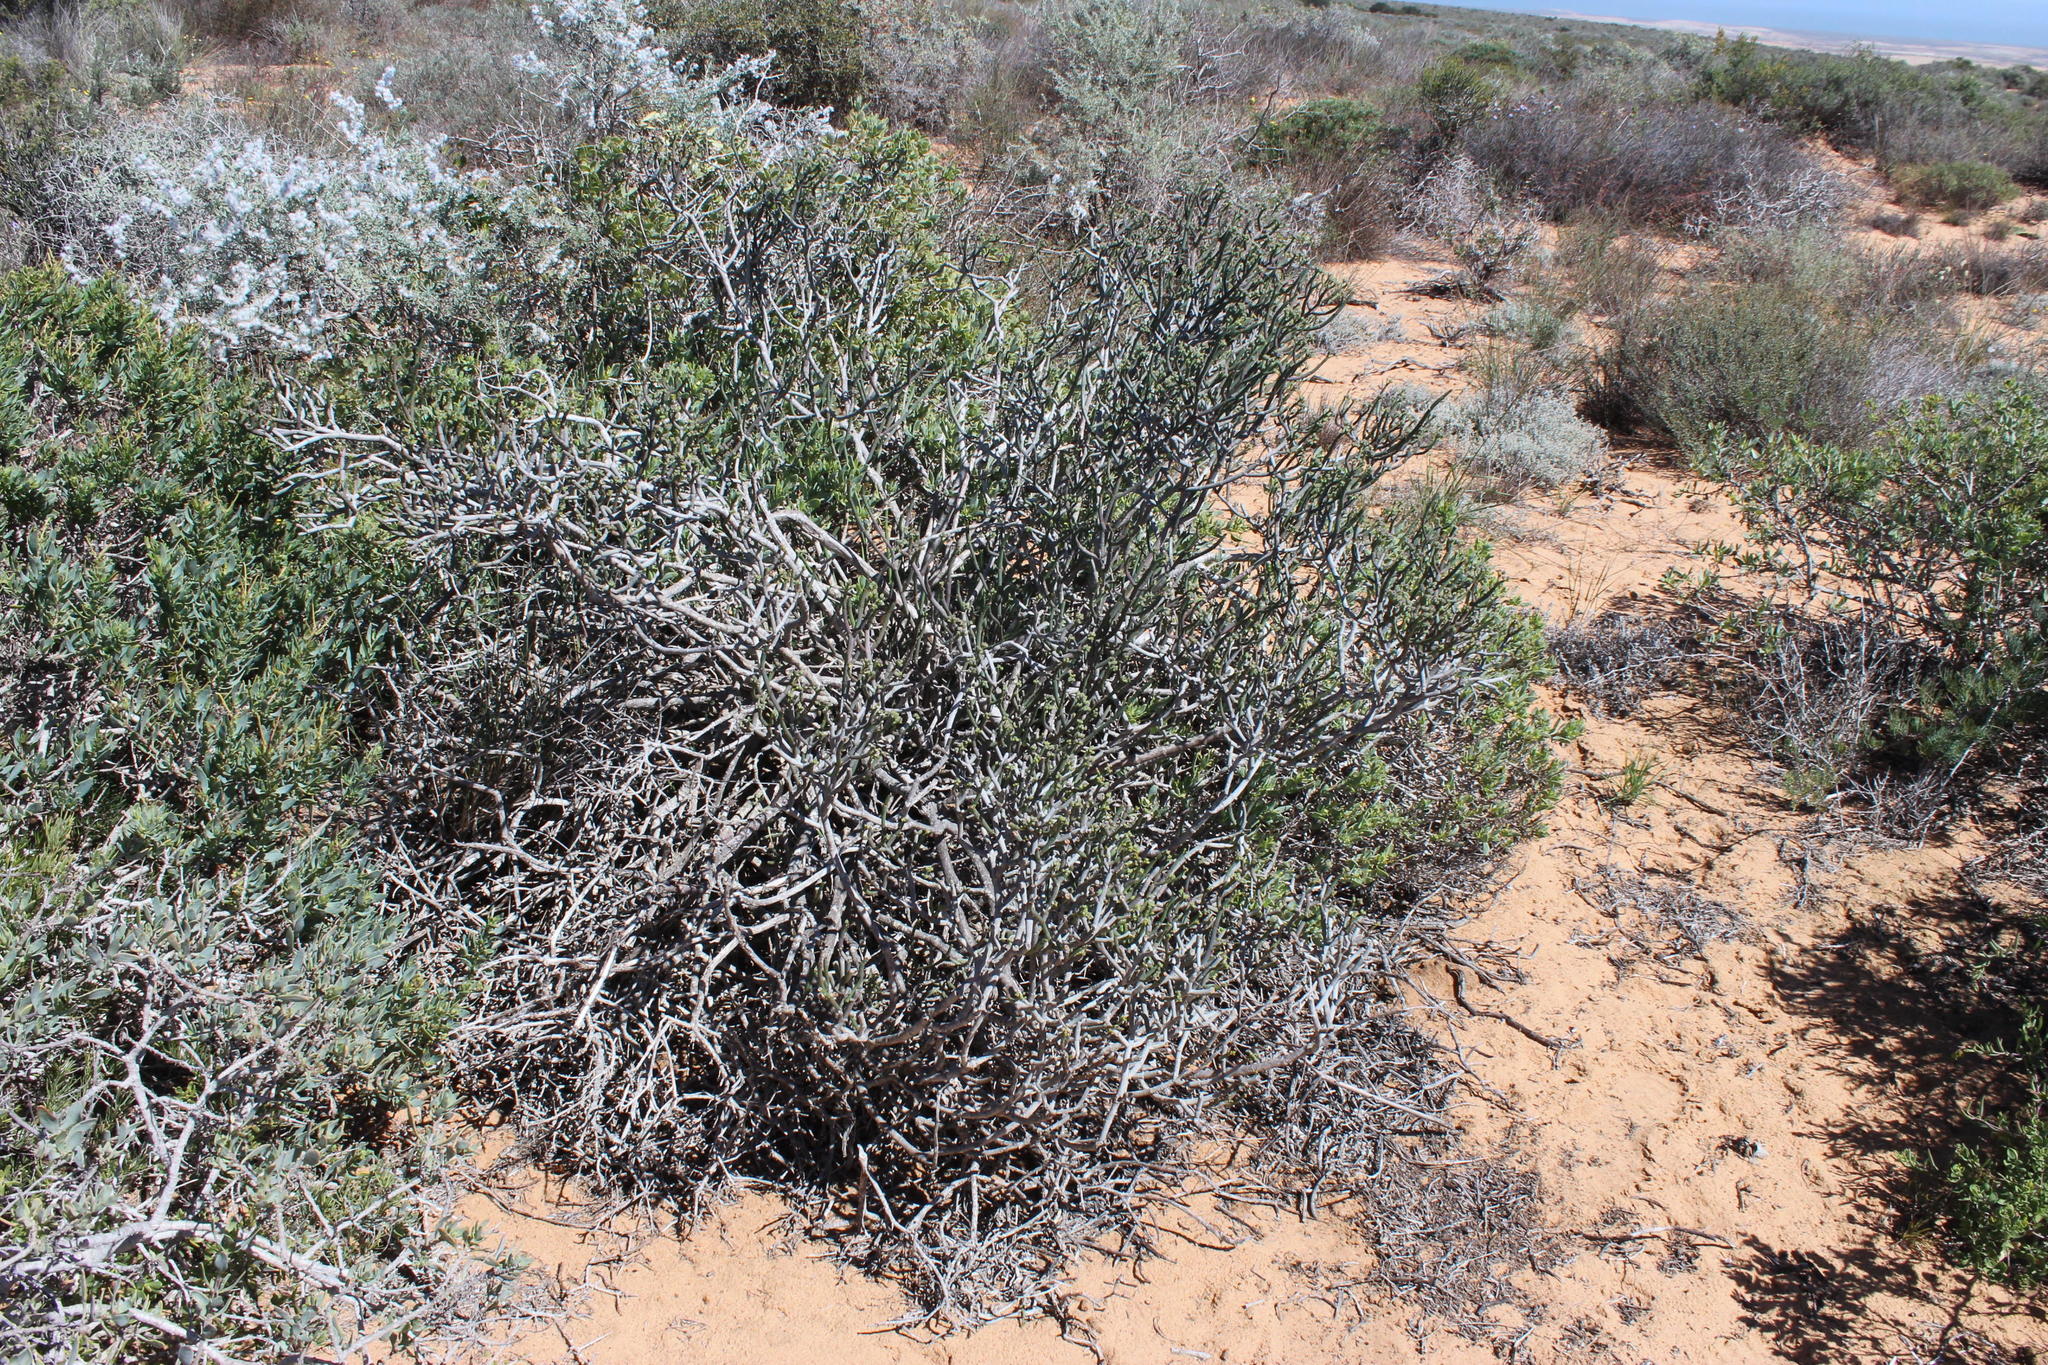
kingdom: Plantae
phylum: Tracheophyta
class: Magnoliopsida
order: Malpighiales
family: Euphorbiaceae
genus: Euphorbia
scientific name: Euphorbia burmanni
